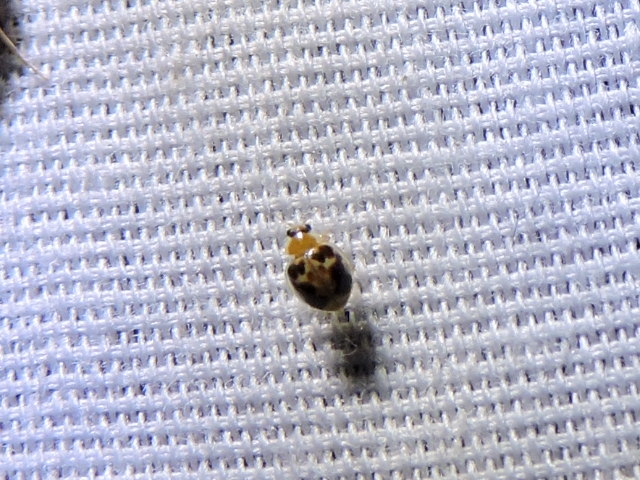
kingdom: Animalia
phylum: Arthropoda
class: Insecta
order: Coleoptera
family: Coccinellidae
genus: Psyllobora
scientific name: Psyllobora renifer
